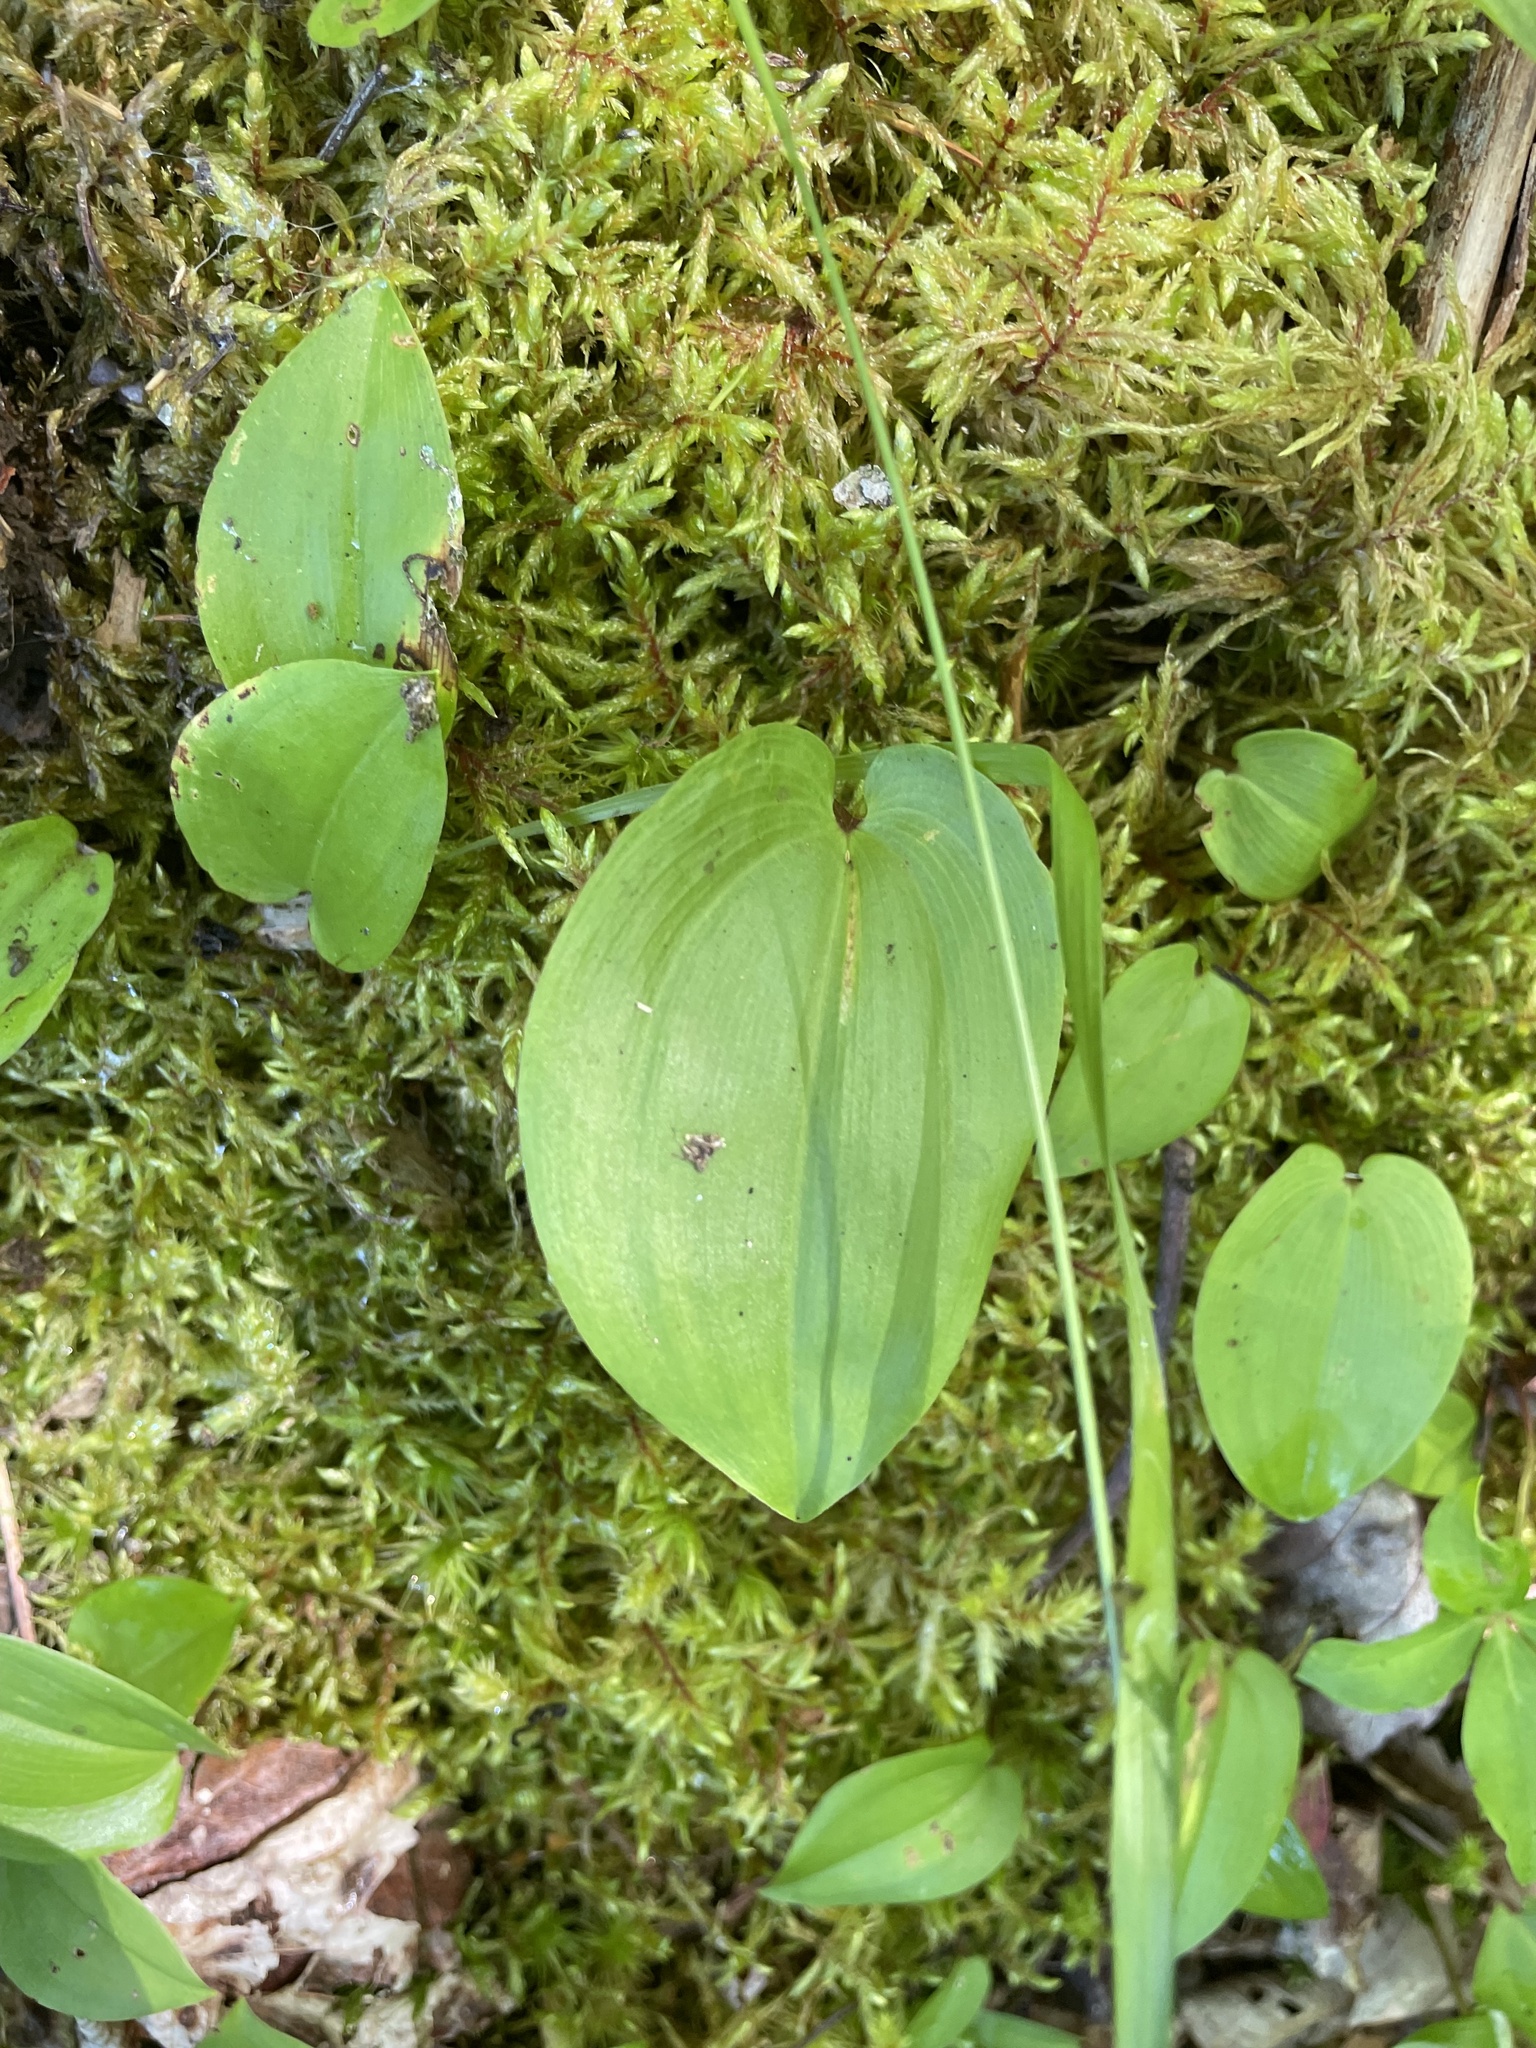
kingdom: Plantae
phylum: Tracheophyta
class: Liliopsida
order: Asparagales
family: Asparagaceae
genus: Maianthemum
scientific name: Maianthemum canadense
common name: False lily-of-the-valley
